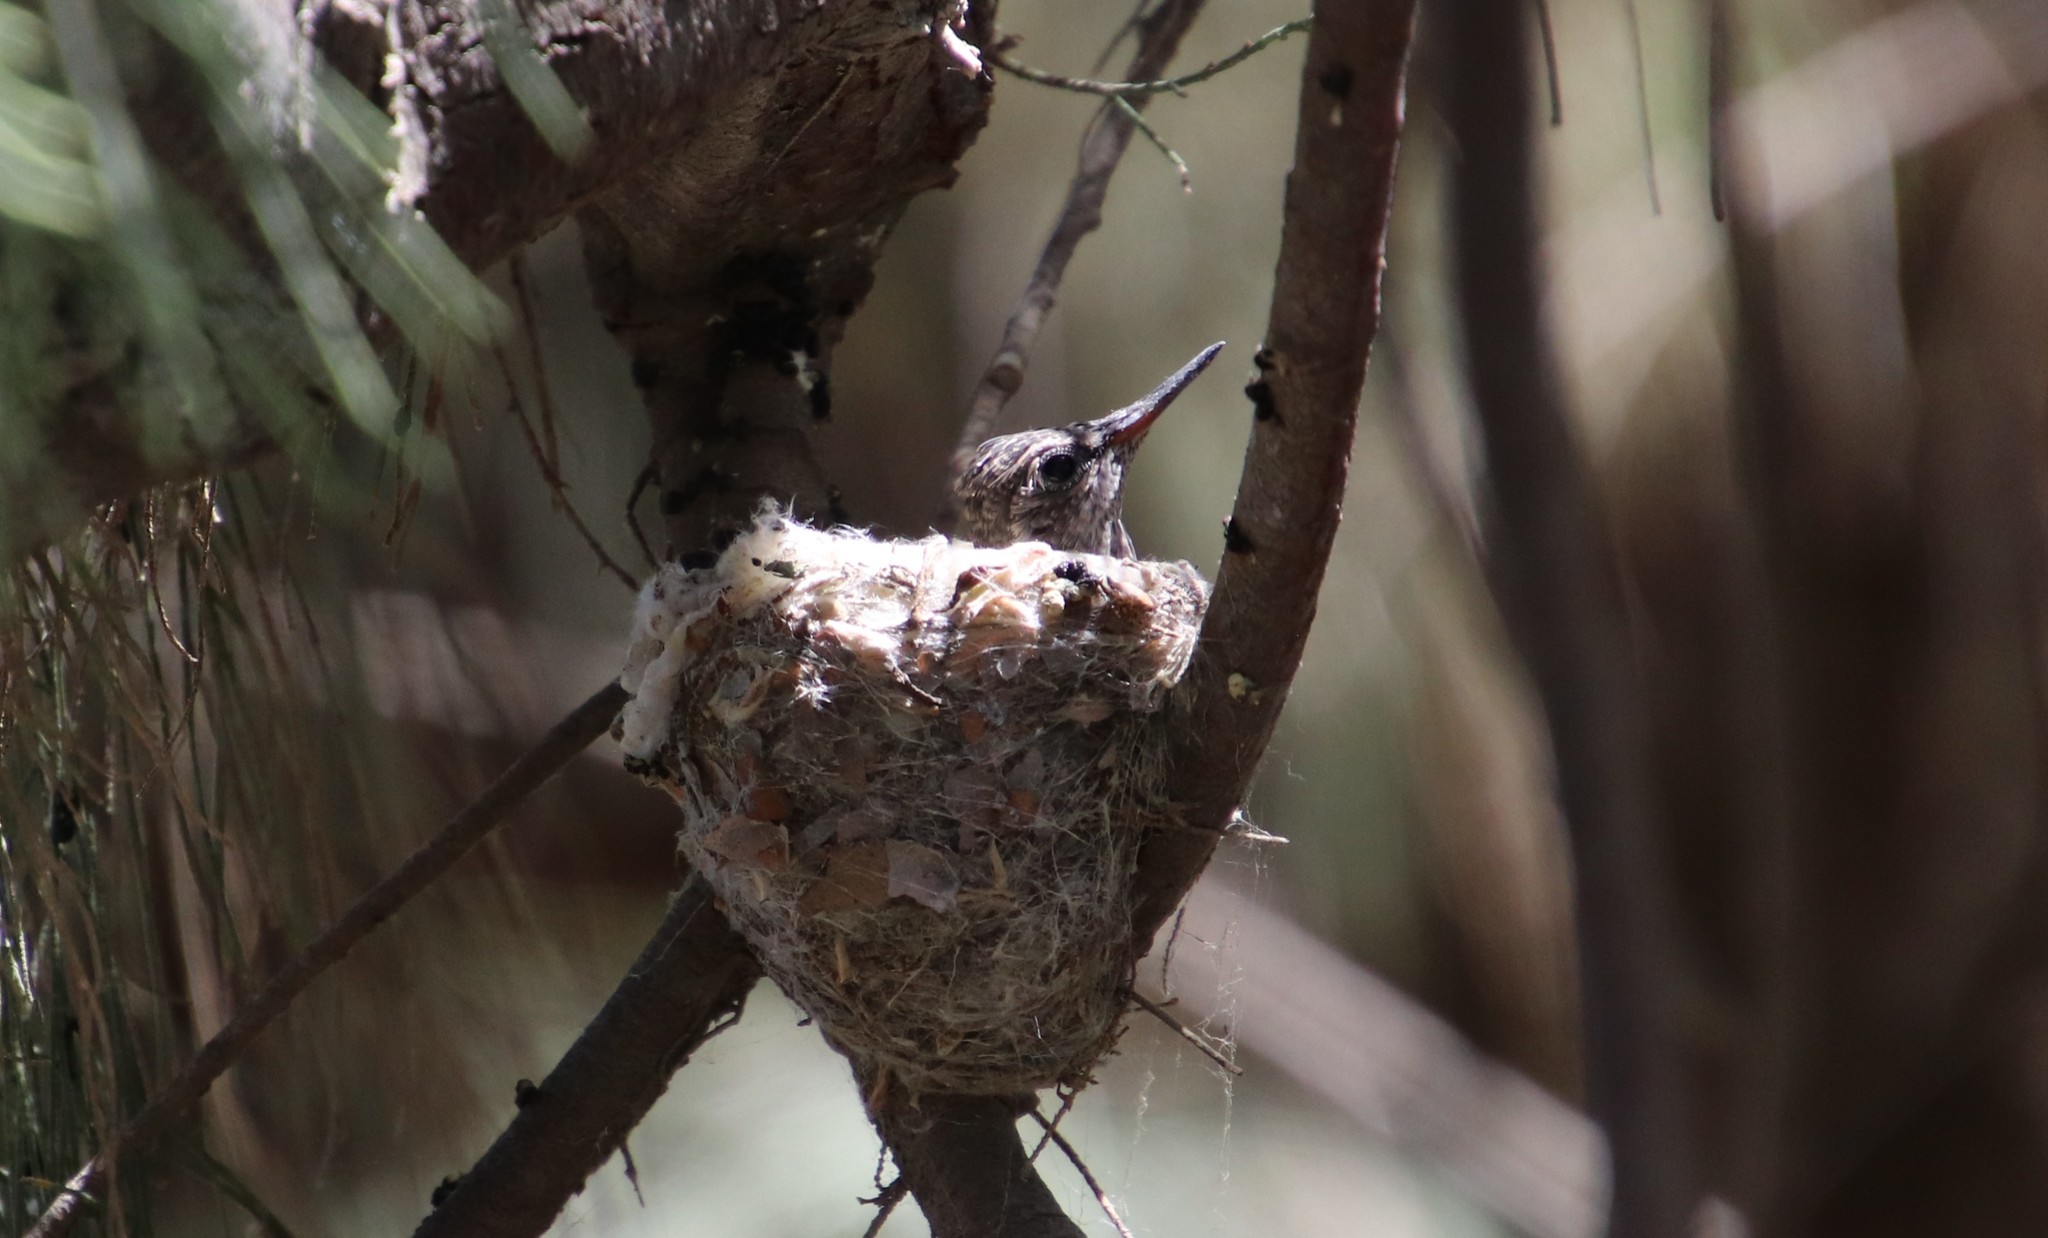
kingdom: Animalia
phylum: Chordata
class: Aves
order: Apodiformes
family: Trochilidae
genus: Calypte
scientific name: Calypte anna
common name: Anna's hummingbird
